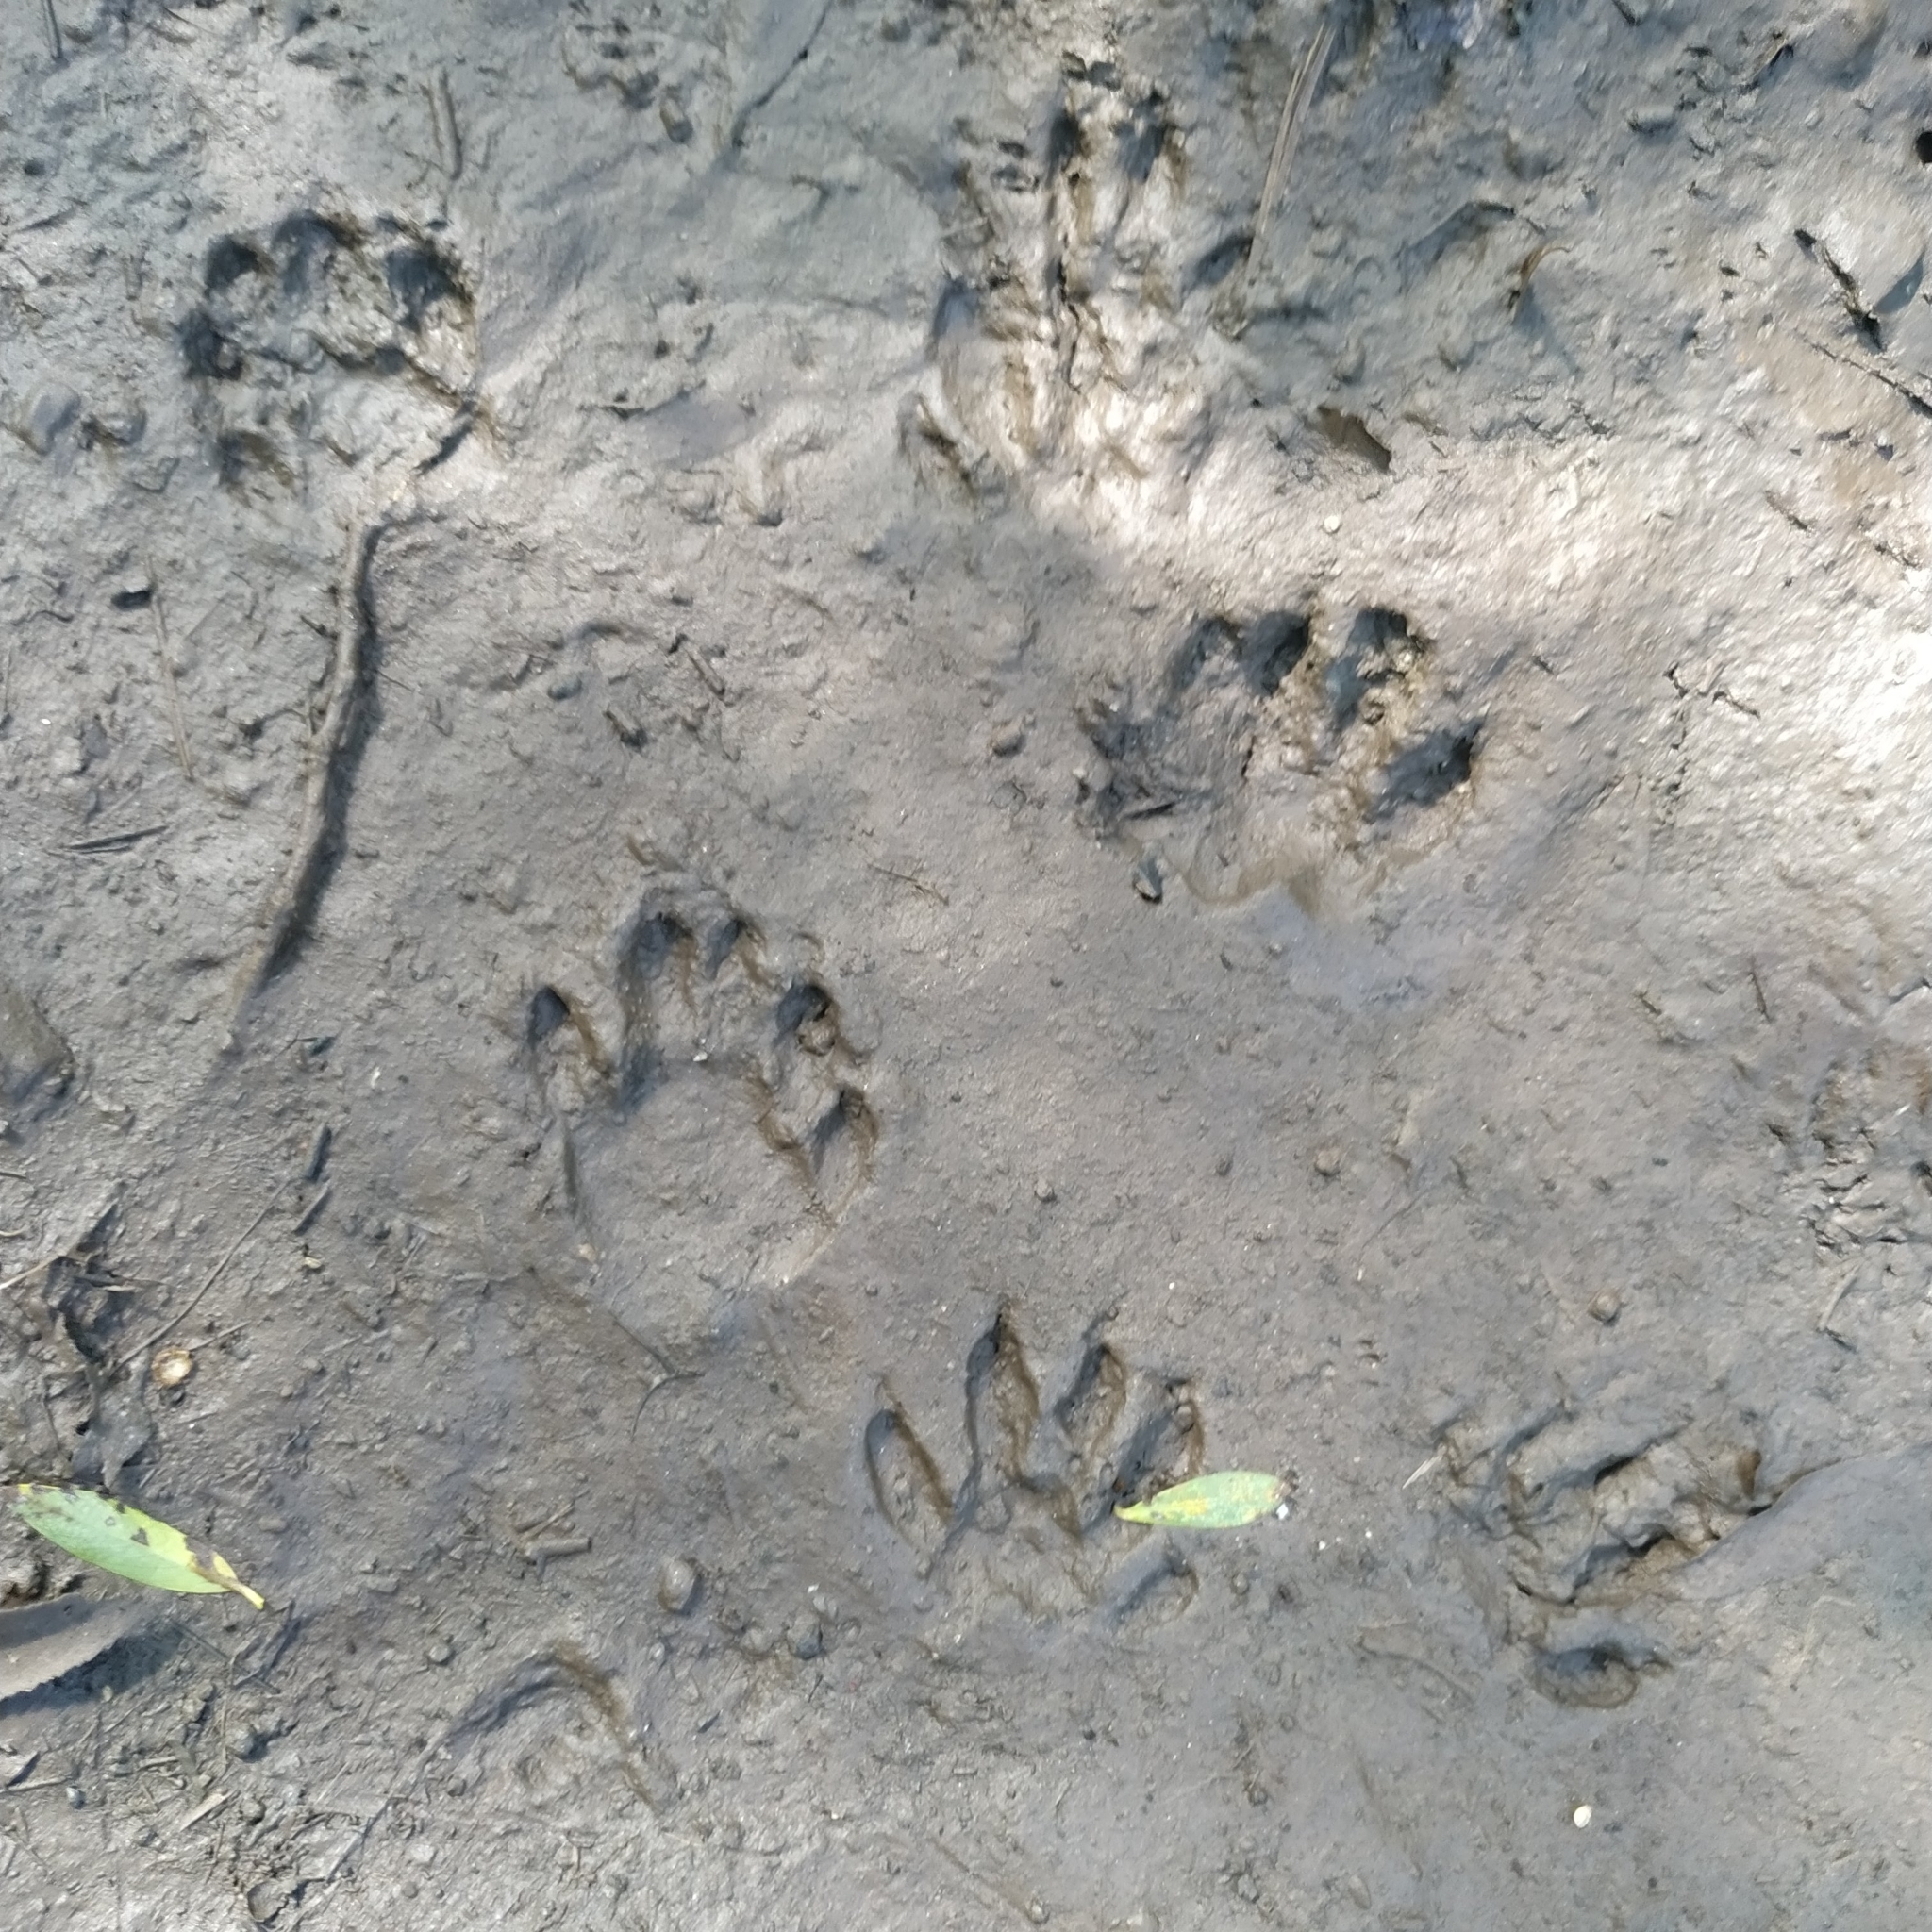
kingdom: Animalia
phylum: Chordata
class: Mammalia
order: Carnivora
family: Procyonidae
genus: Procyon
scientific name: Procyon lotor
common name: Raccoon
